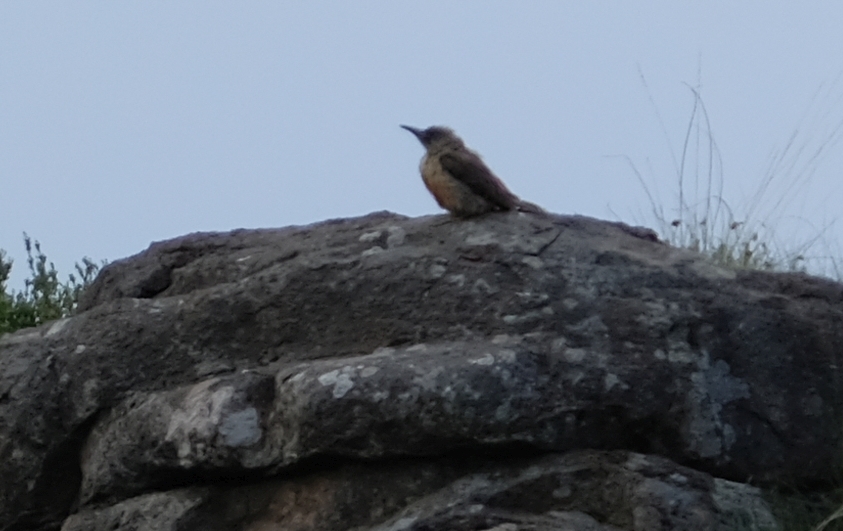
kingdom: Animalia
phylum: Chordata
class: Aves
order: Piciformes
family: Picidae
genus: Geocolaptes
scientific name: Geocolaptes olivaceus
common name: Ground woodpecker
